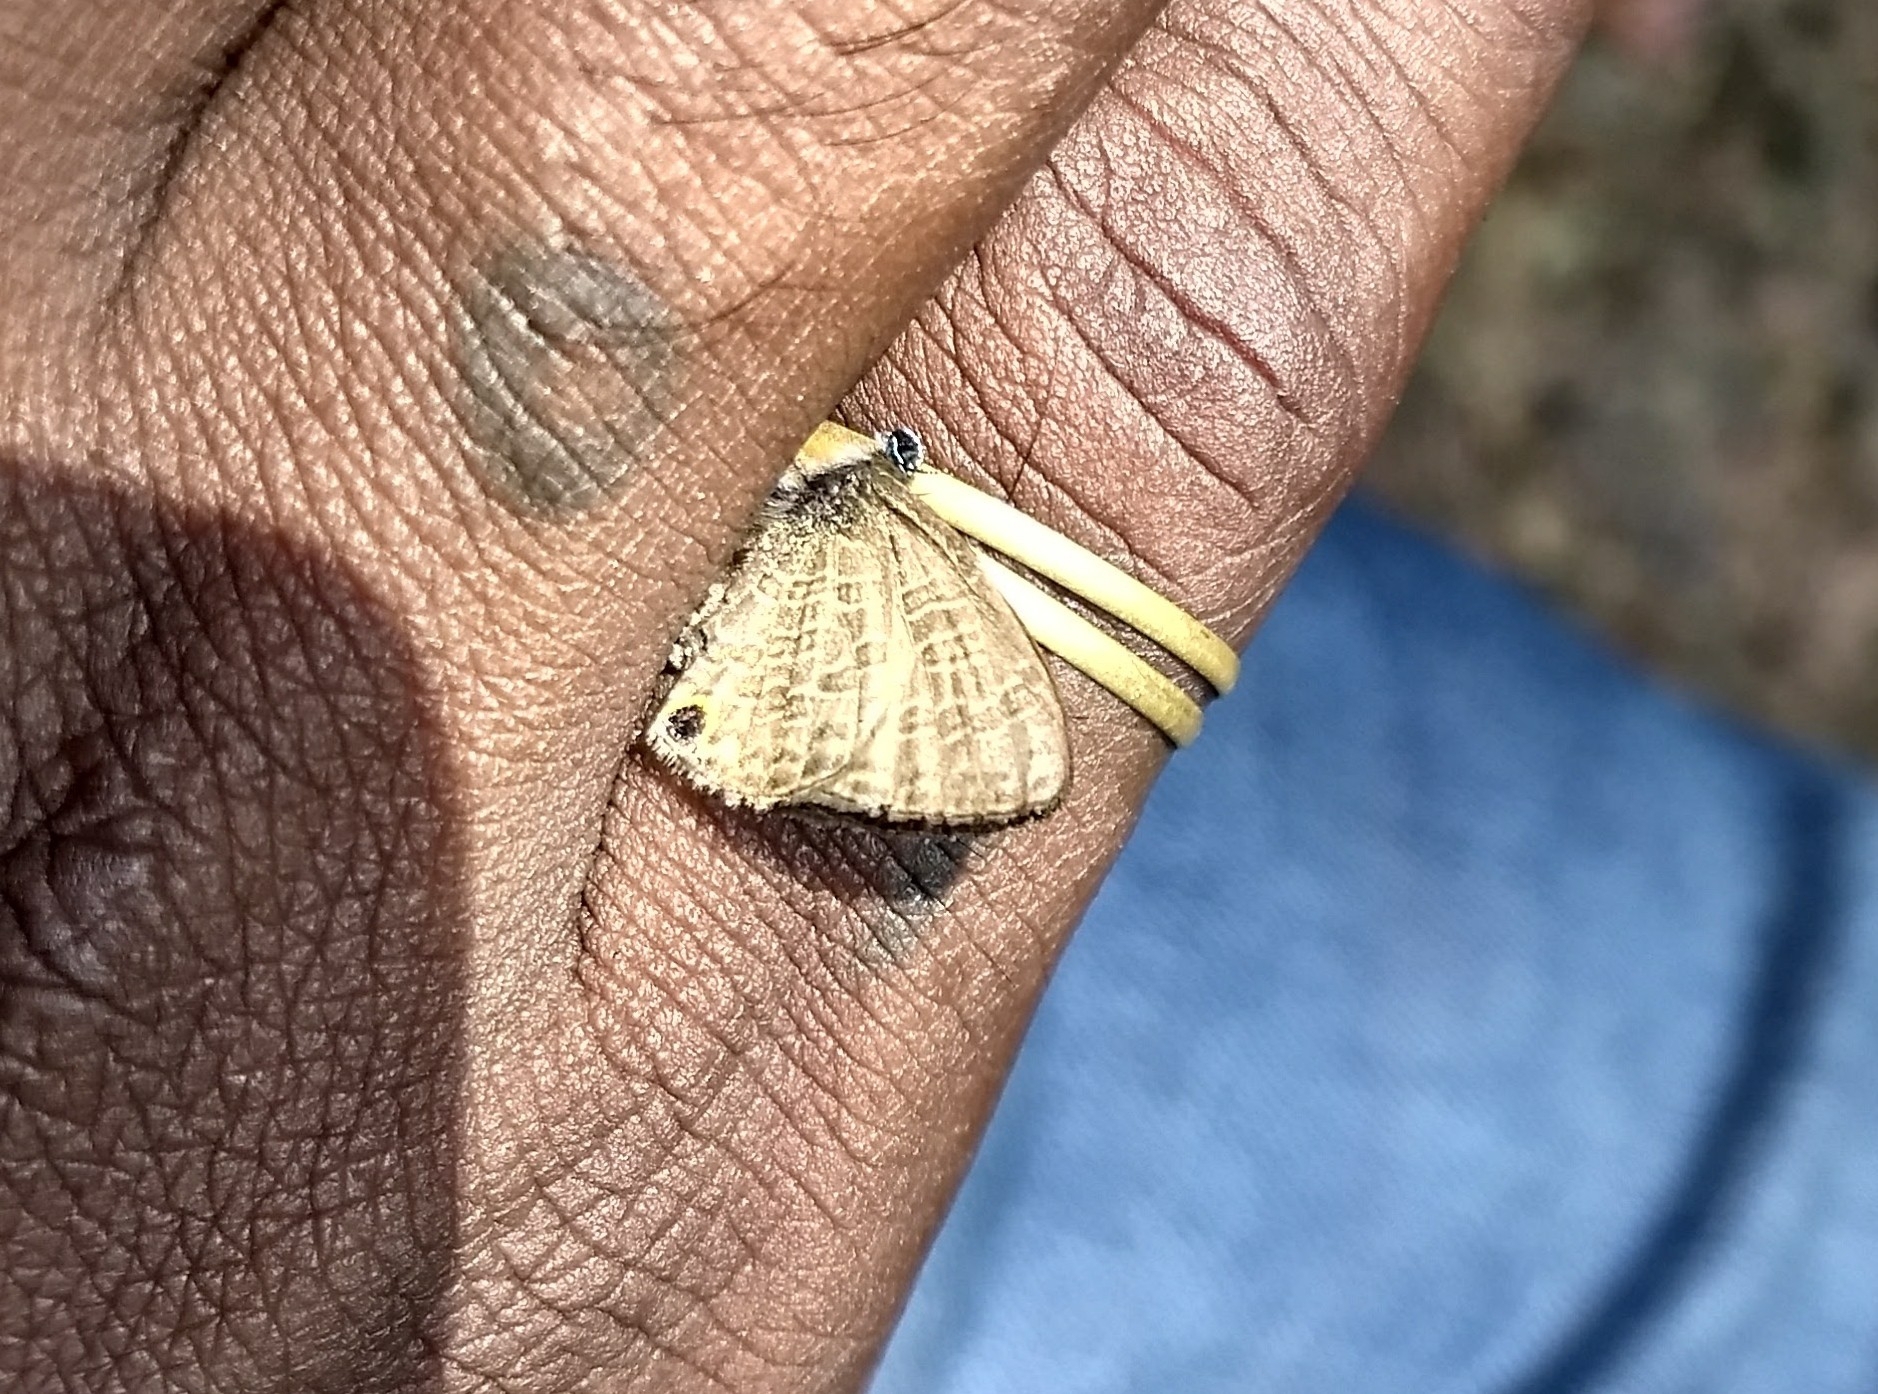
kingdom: Animalia
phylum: Arthropoda
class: Insecta
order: Lepidoptera
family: Lycaenidae
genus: Prosotas
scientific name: Prosotas dubiosa
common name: Tailless lineblue
